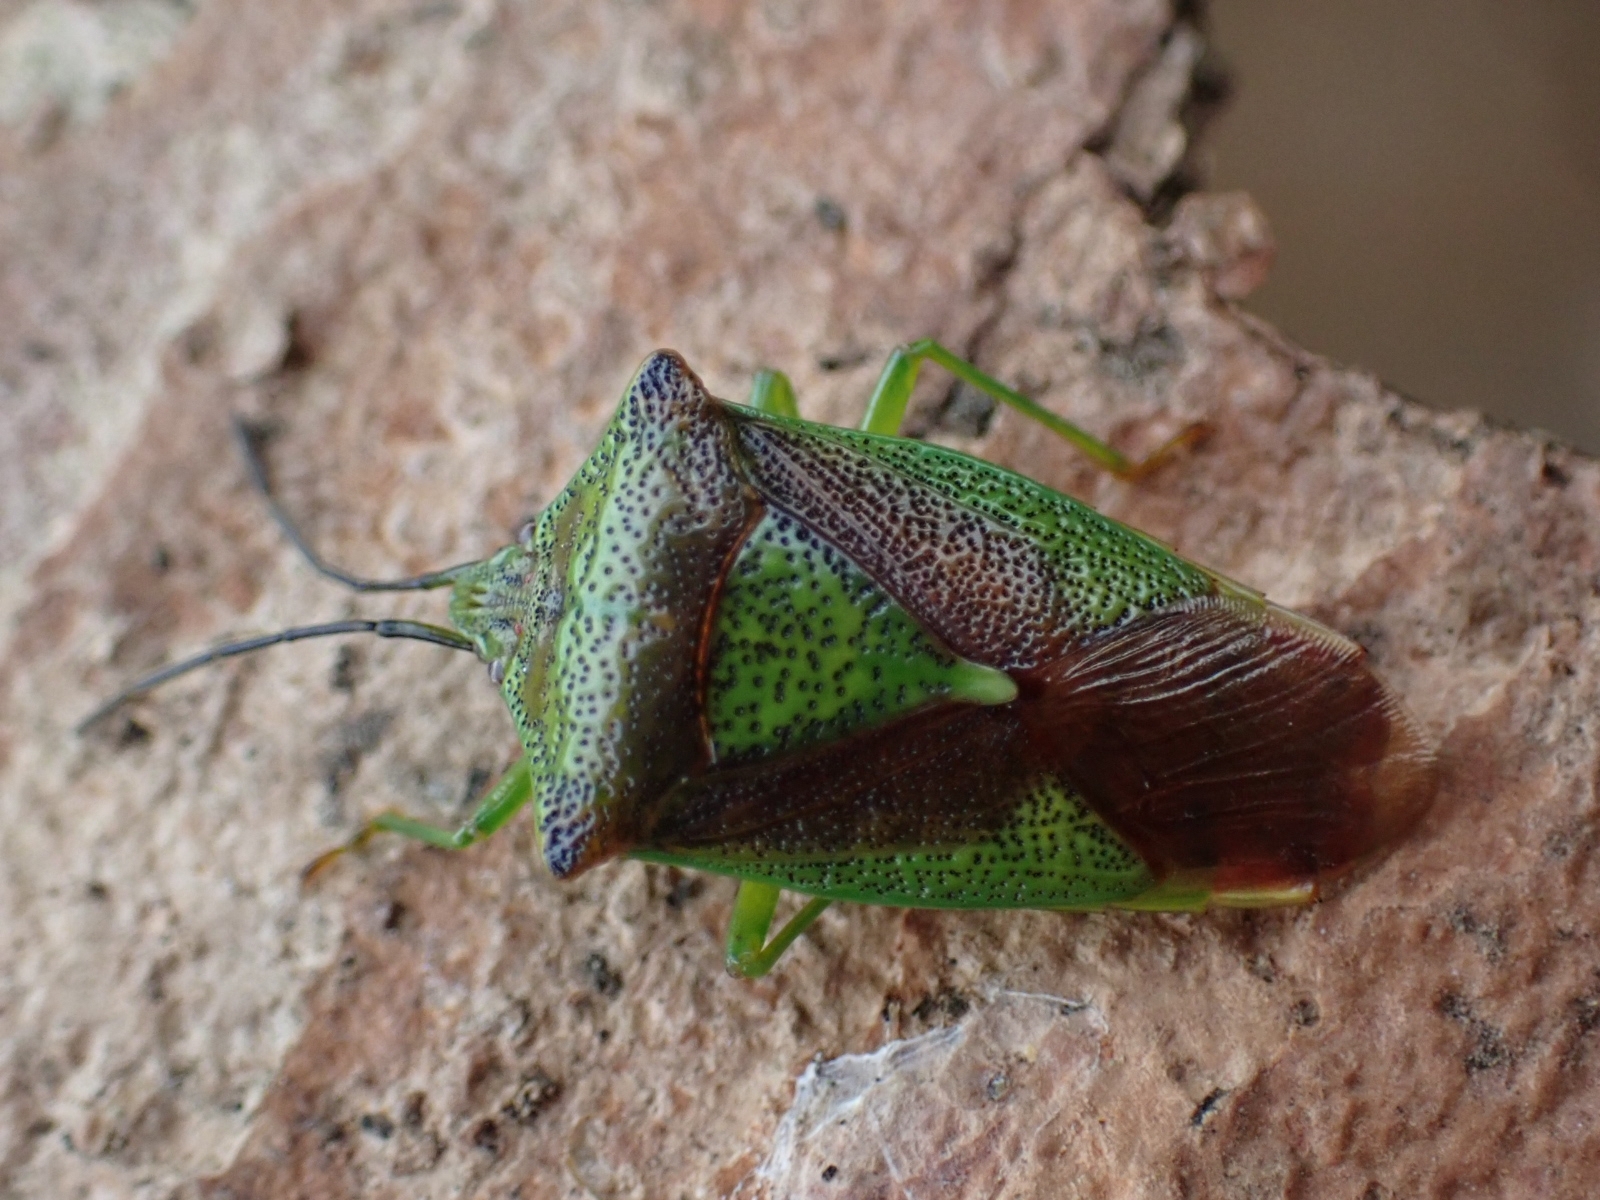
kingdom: Animalia
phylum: Arthropoda
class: Insecta
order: Hemiptera
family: Acanthosomatidae
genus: Acanthosoma
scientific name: Acanthosoma haemorrhoidale
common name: Hawthorn shieldbug
